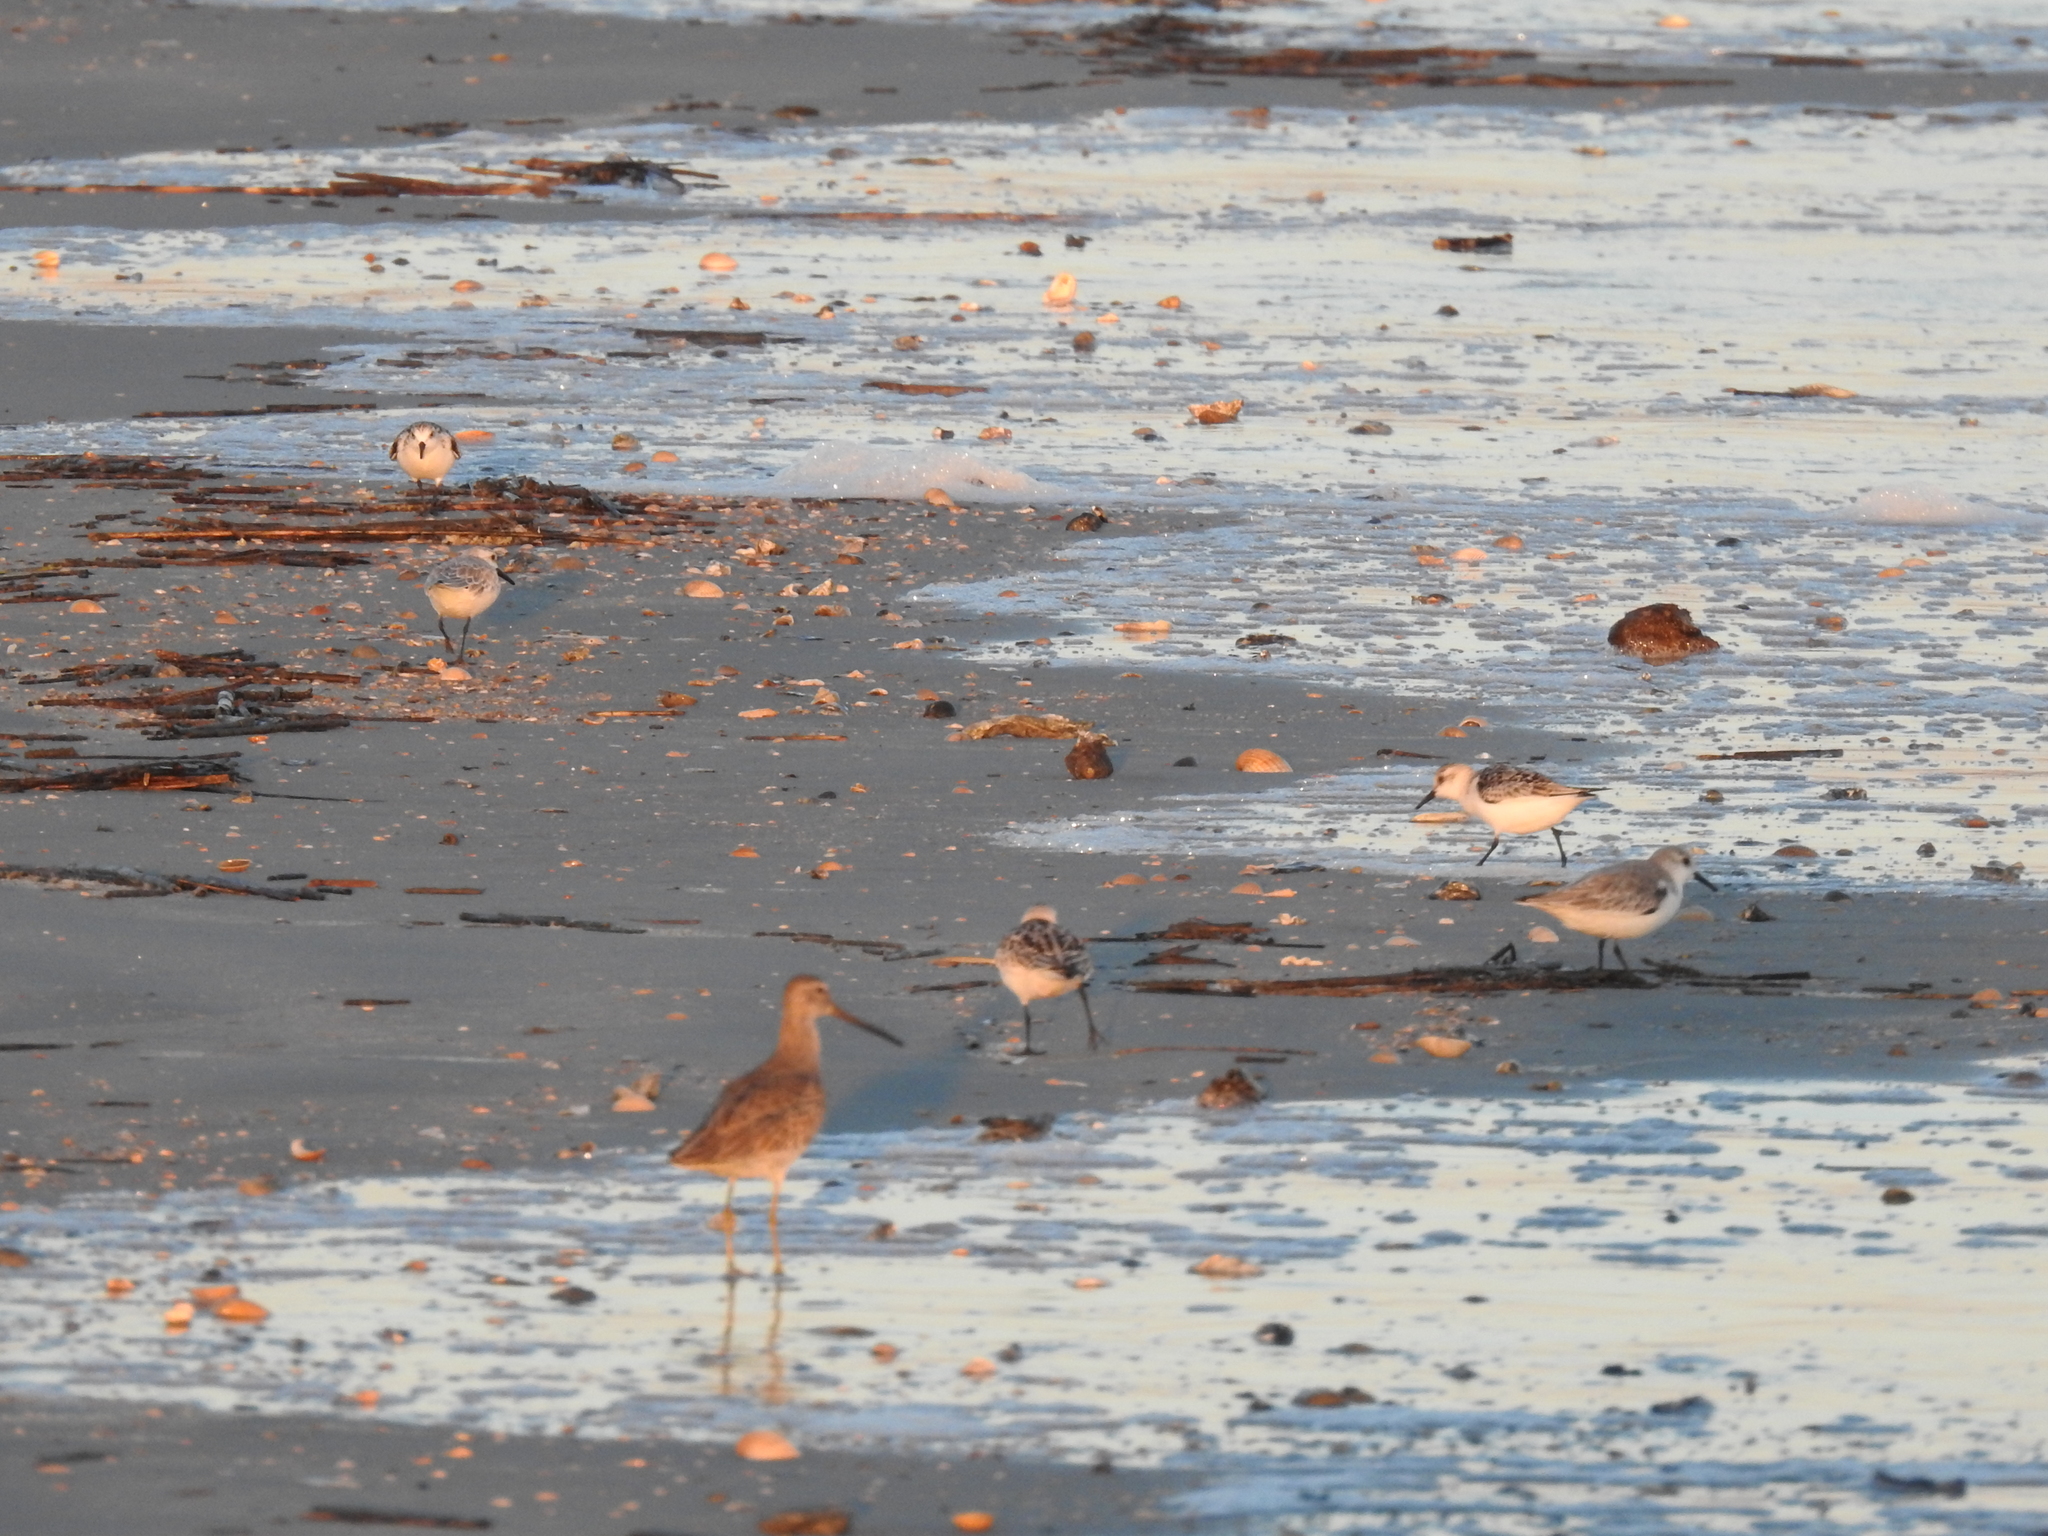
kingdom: Animalia
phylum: Chordata
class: Aves
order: Charadriiformes
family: Scolopacidae
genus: Calidris
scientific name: Calidris alba
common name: Sanderling
